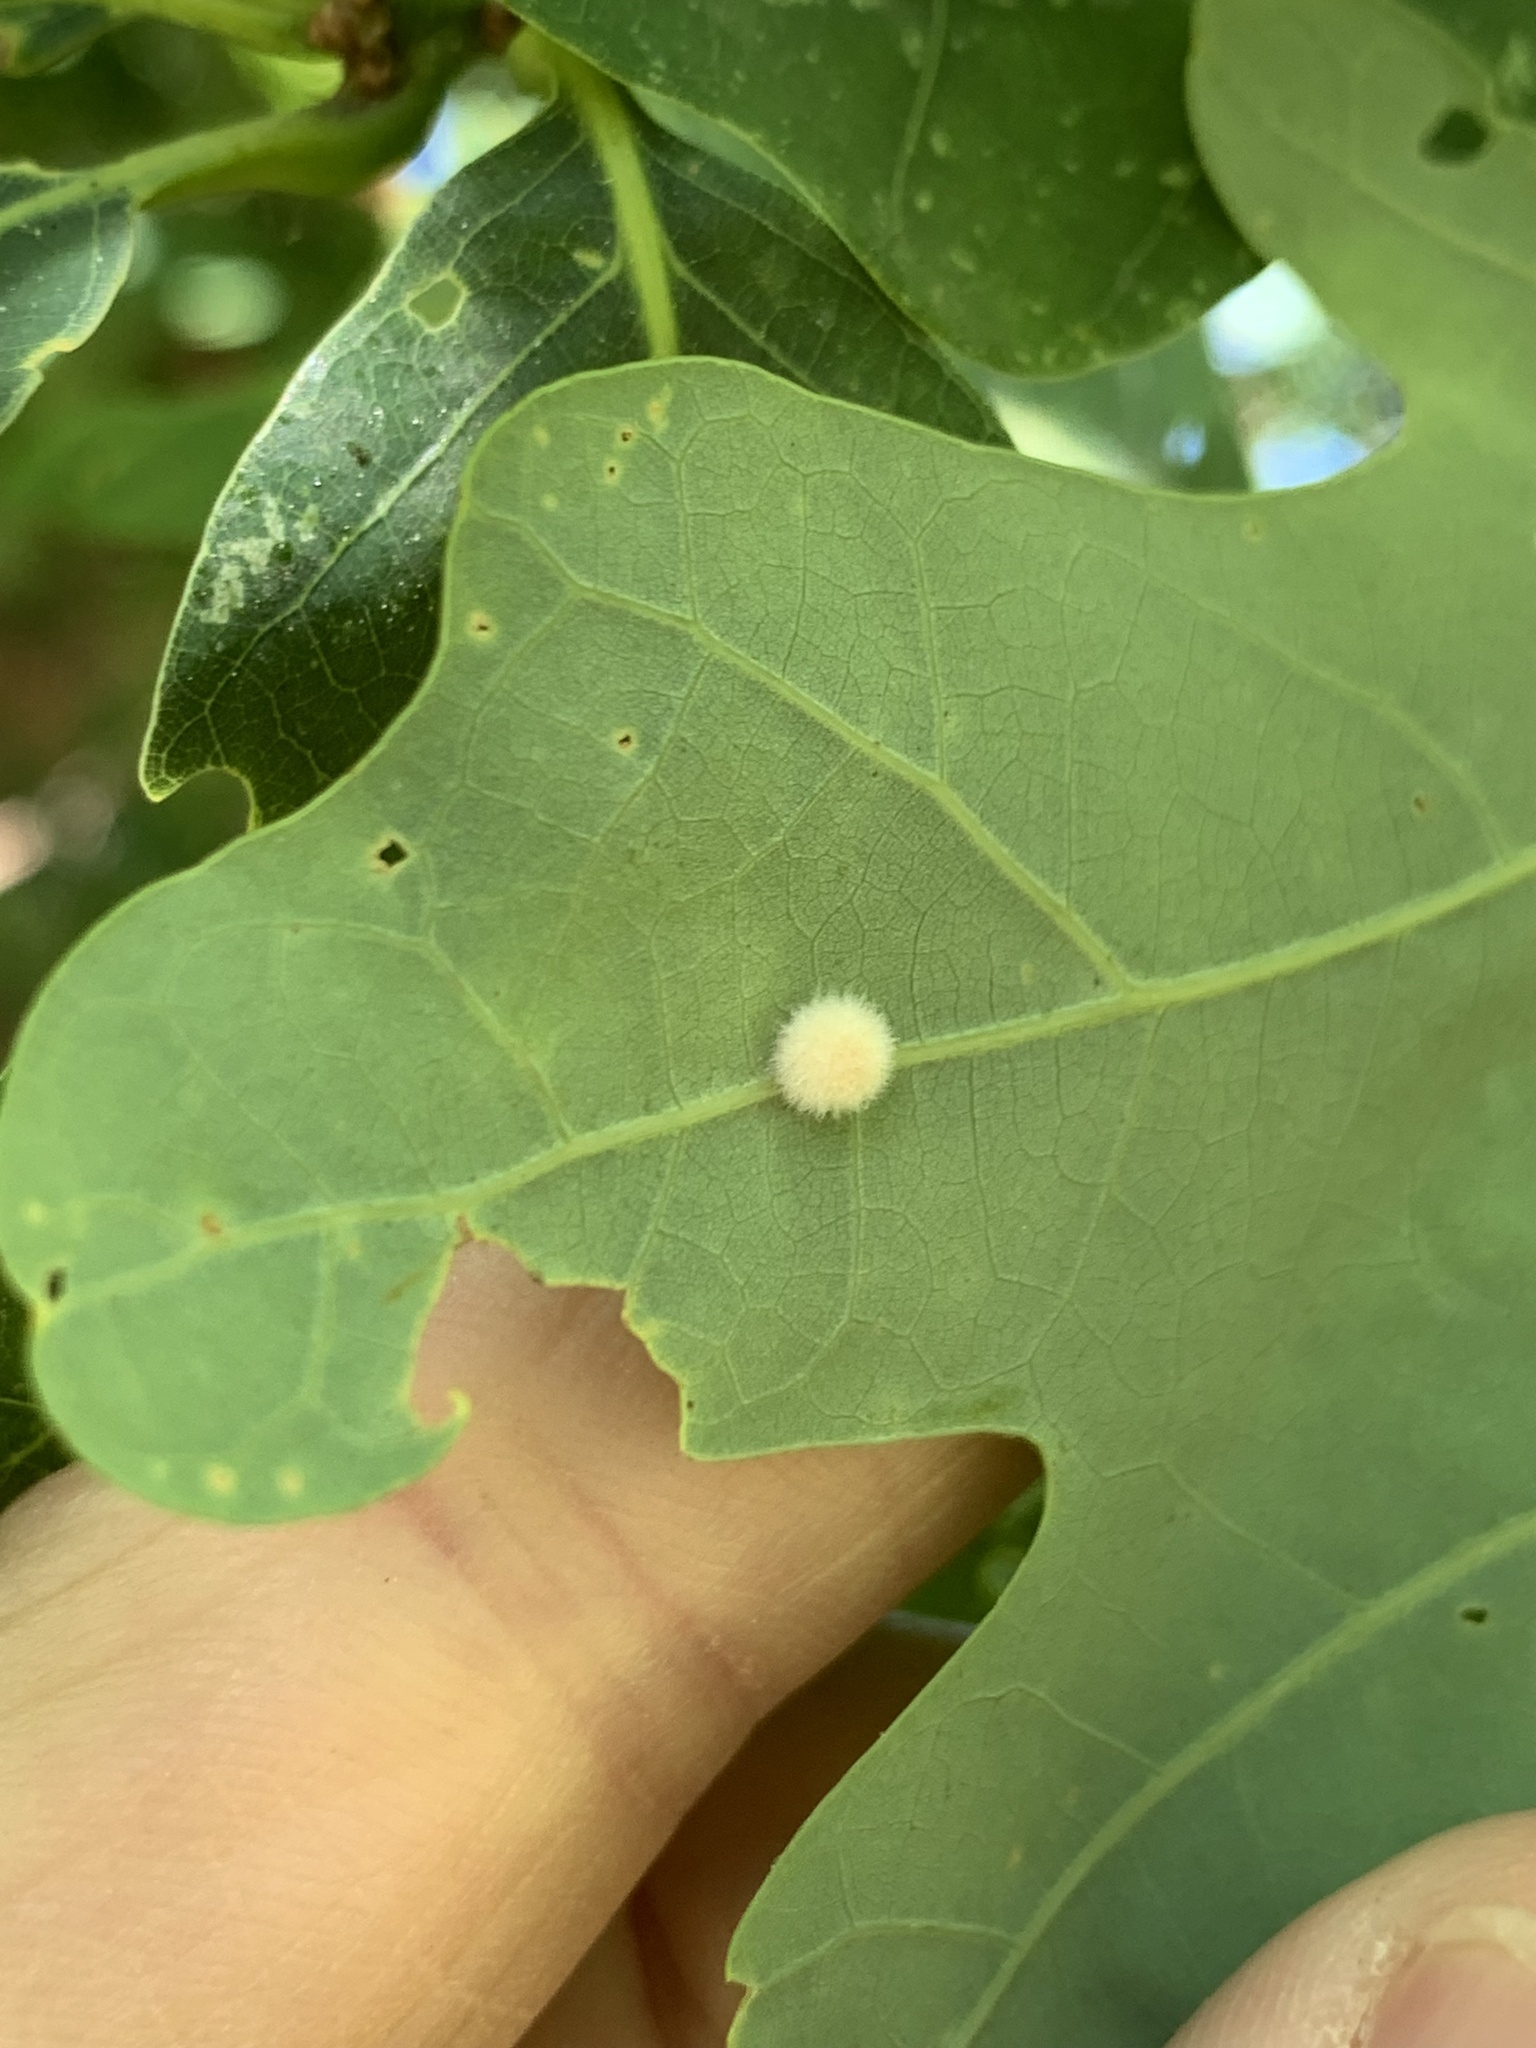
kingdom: Animalia
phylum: Arthropoda
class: Insecta
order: Hymenoptera
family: Cynipidae
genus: Philonix
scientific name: Philonix fulvicollis
